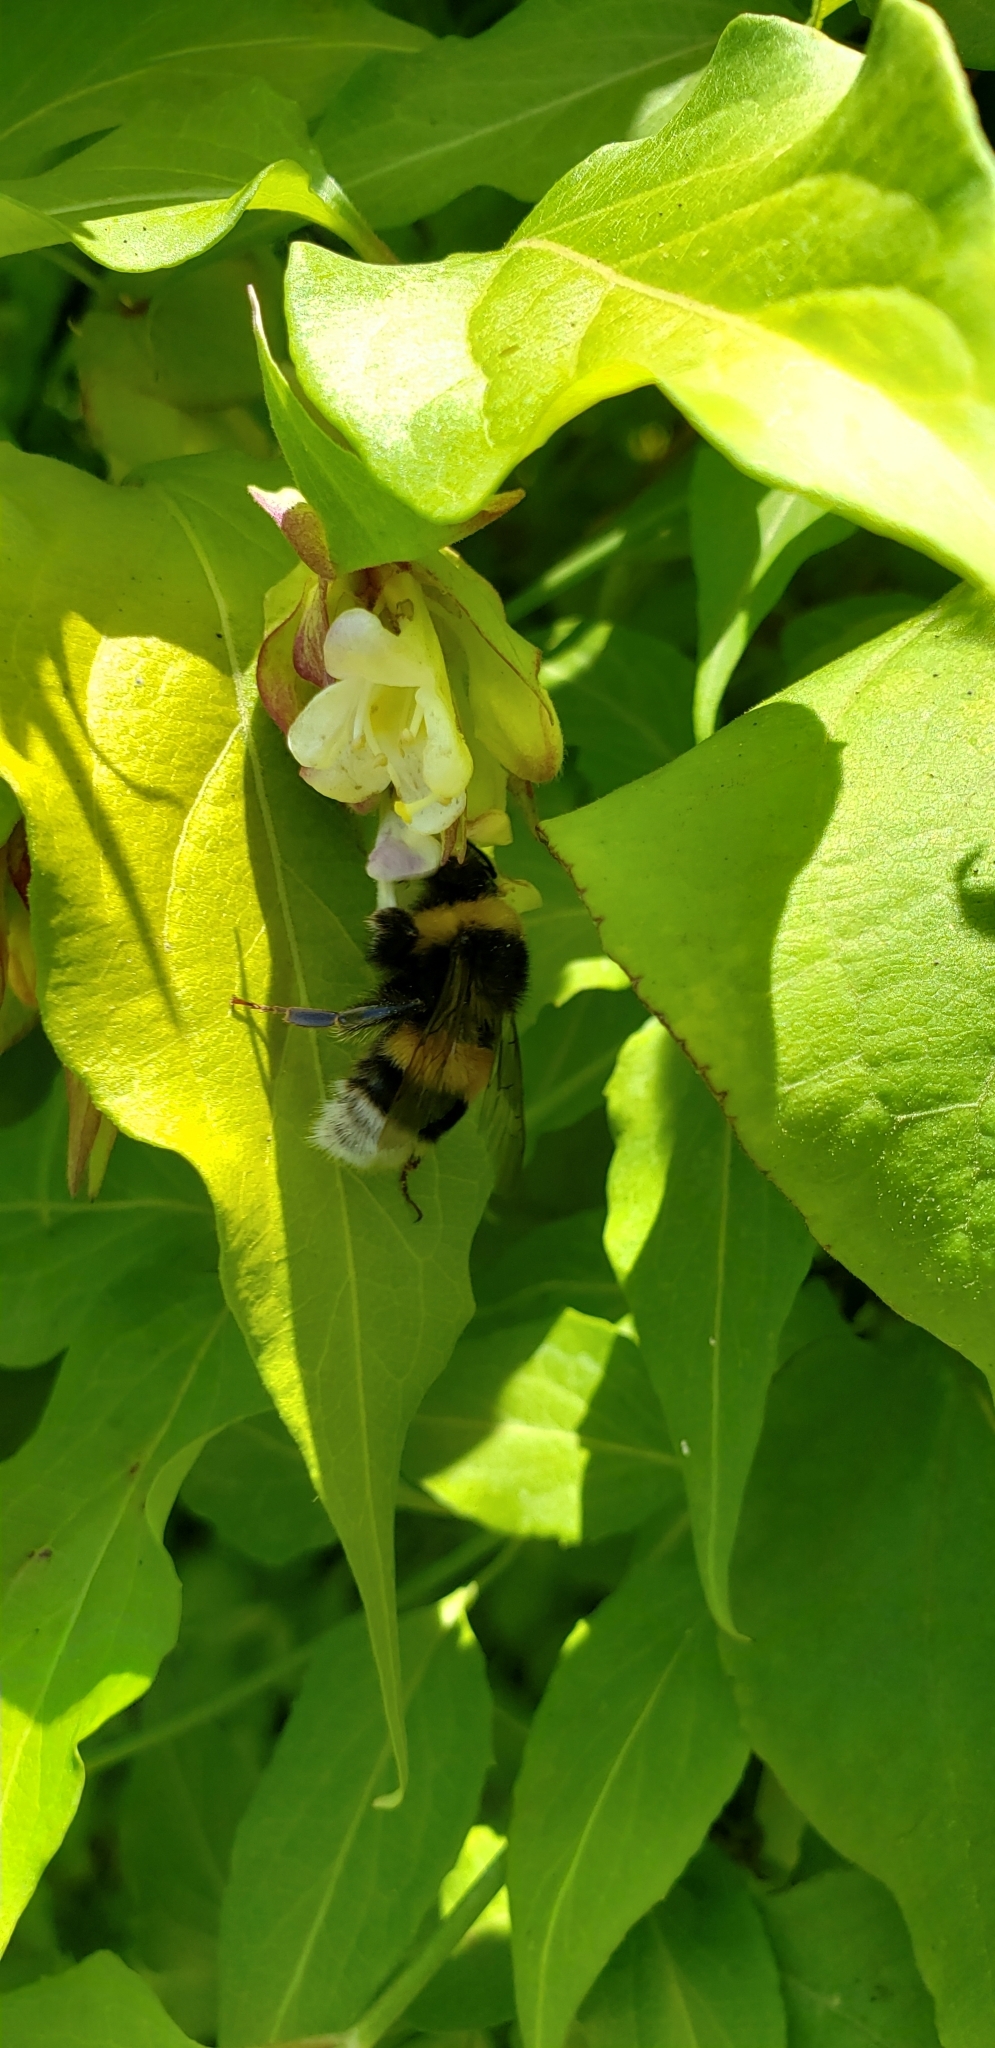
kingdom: Animalia
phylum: Arthropoda
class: Insecta
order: Hymenoptera
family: Apidae
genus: Bombus
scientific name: Bombus terrestris
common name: Buff-tailed bumblebee
